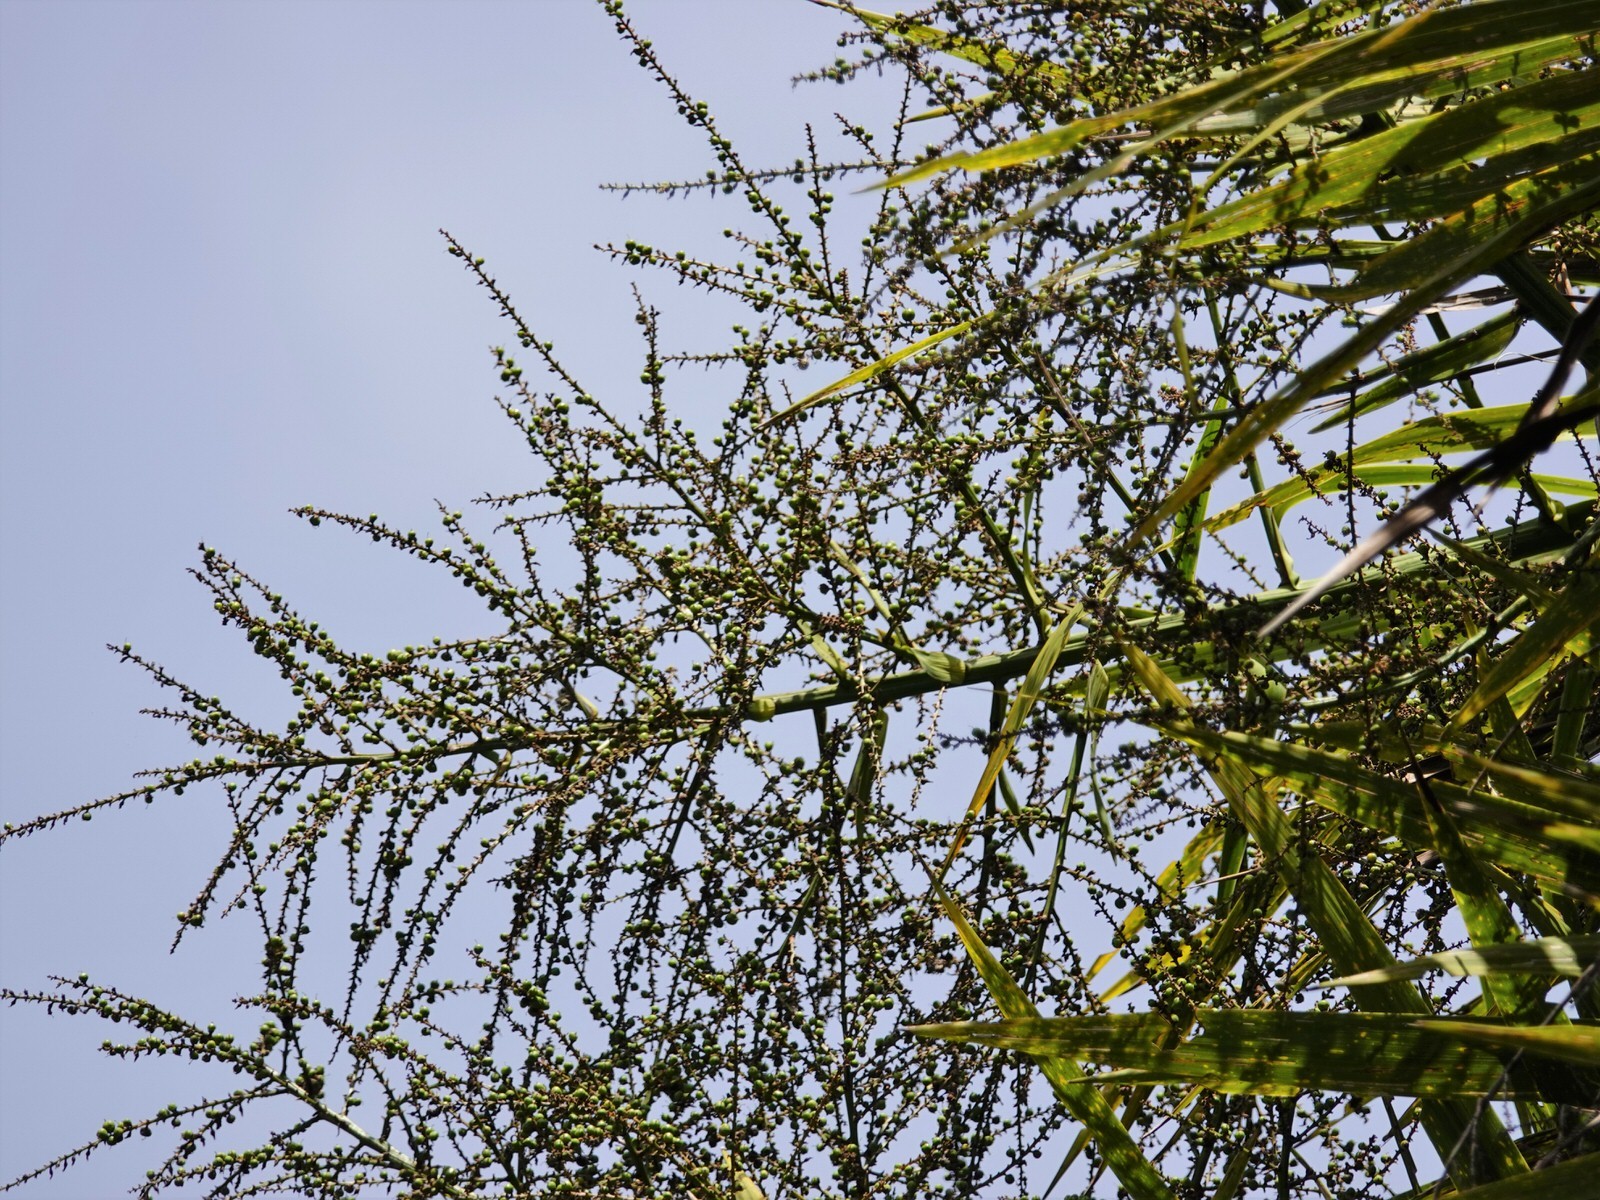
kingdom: Plantae
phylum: Tracheophyta
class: Liliopsida
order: Asparagales
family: Asparagaceae
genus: Cordyline
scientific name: Cordyline australis
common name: Cabbage-palm
